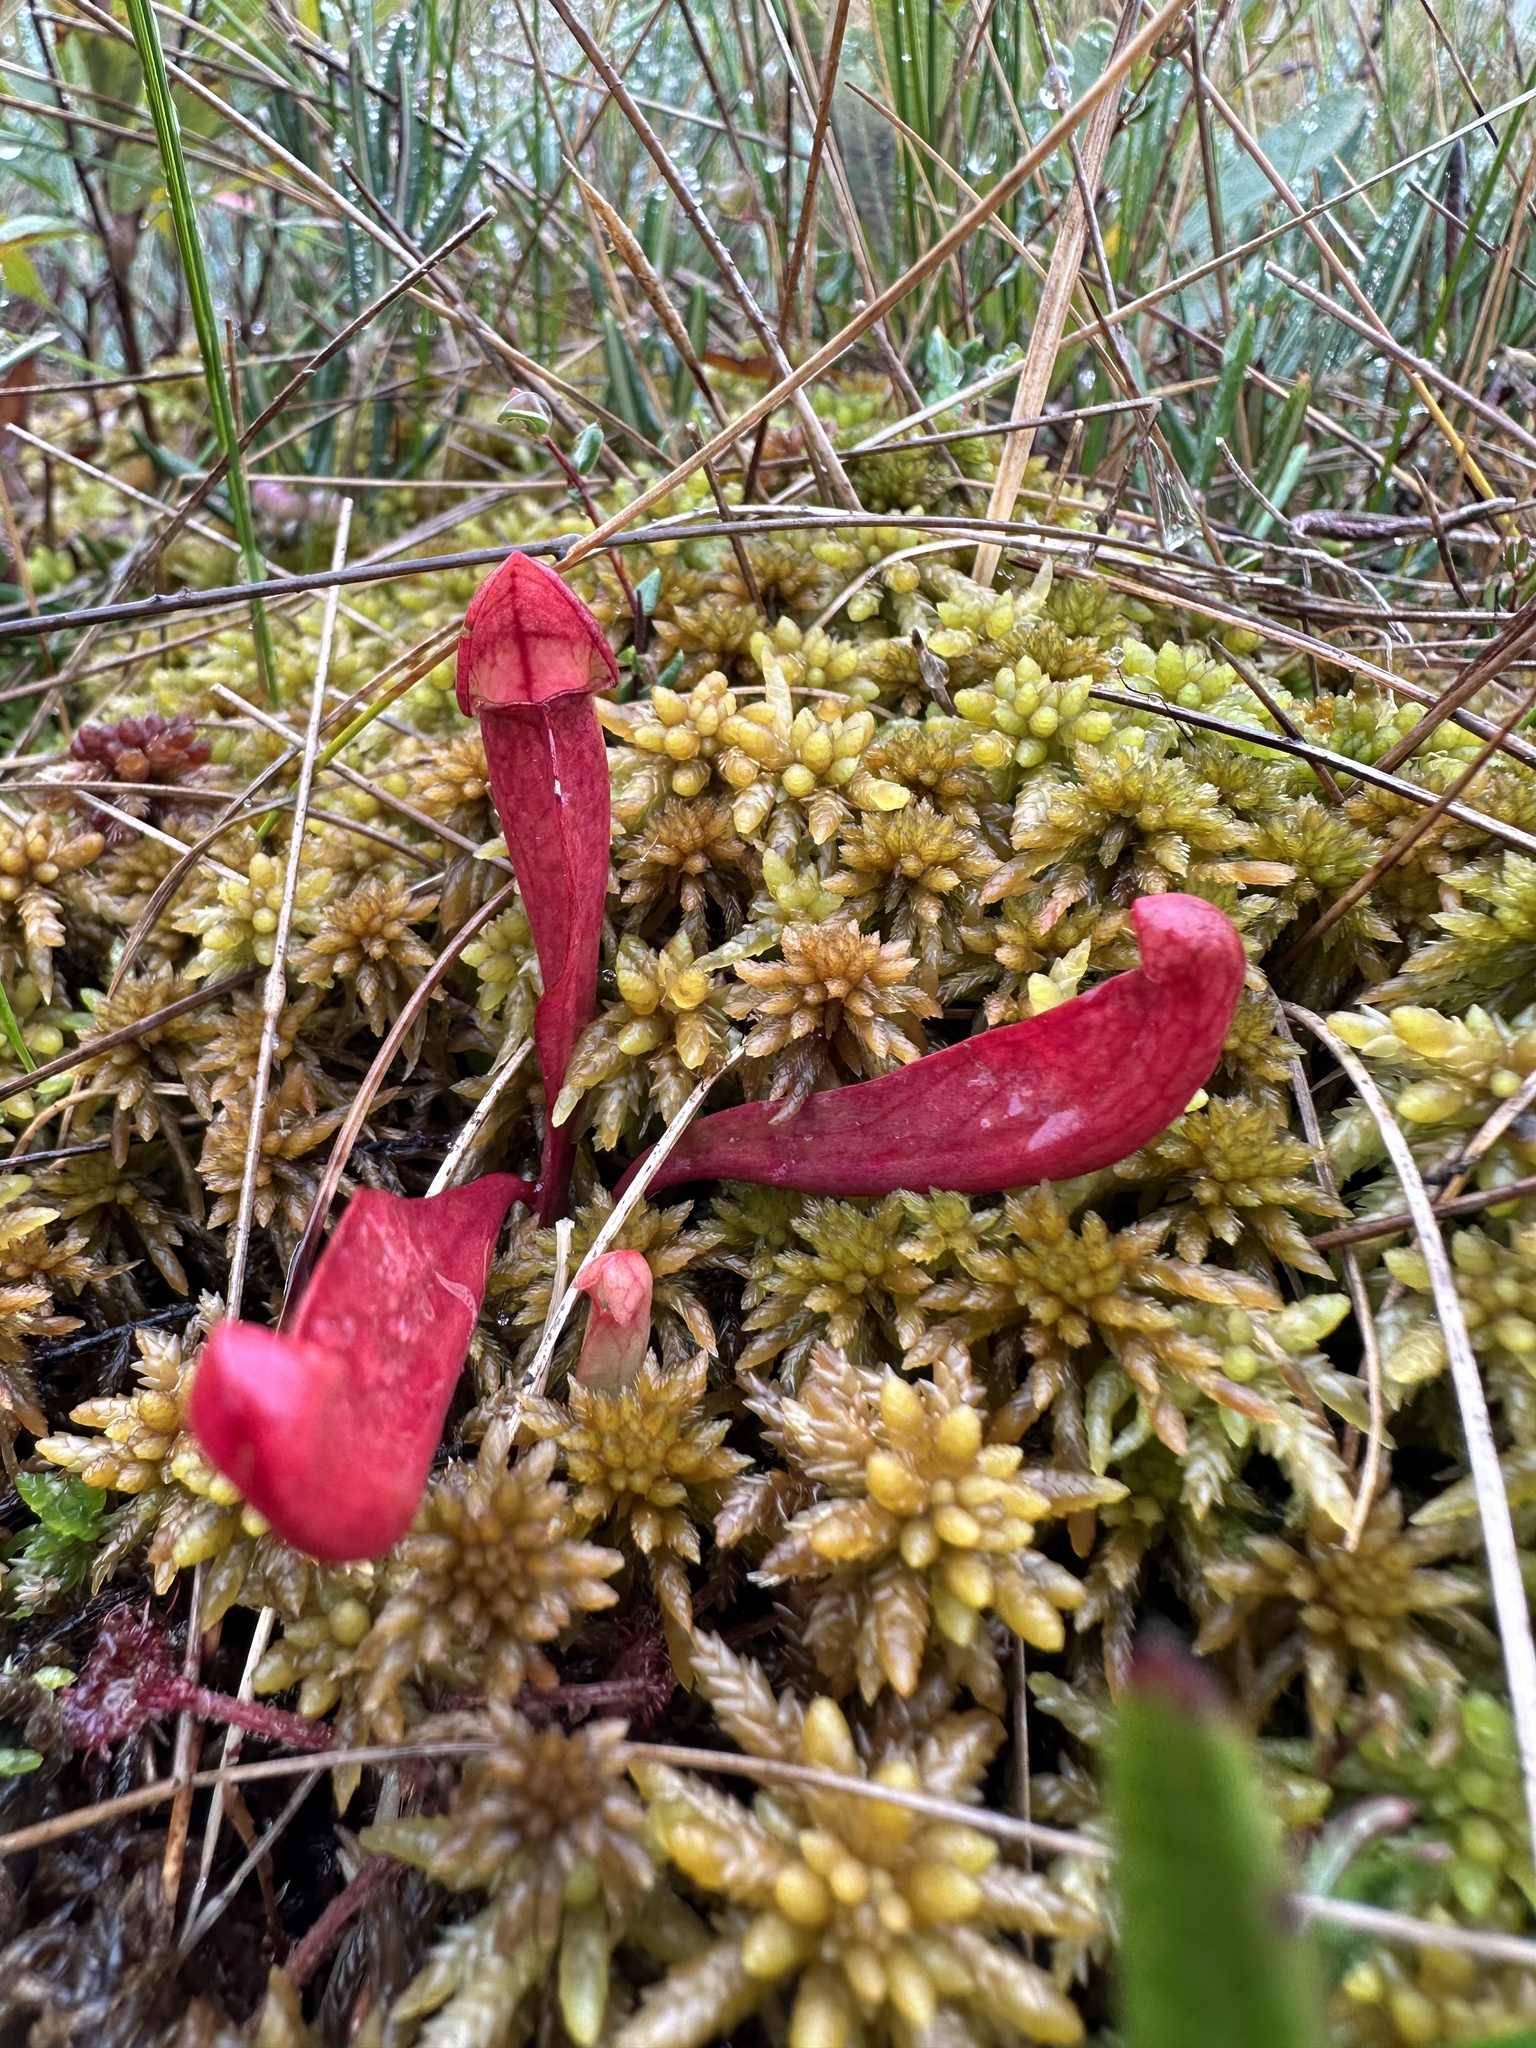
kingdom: Plantae
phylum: Tracheophyta
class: Magnoliopsida
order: Ericales
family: Sarraceniaceae
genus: Sarracenia
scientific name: Sarracenia purpurea
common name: Pitcherplant
